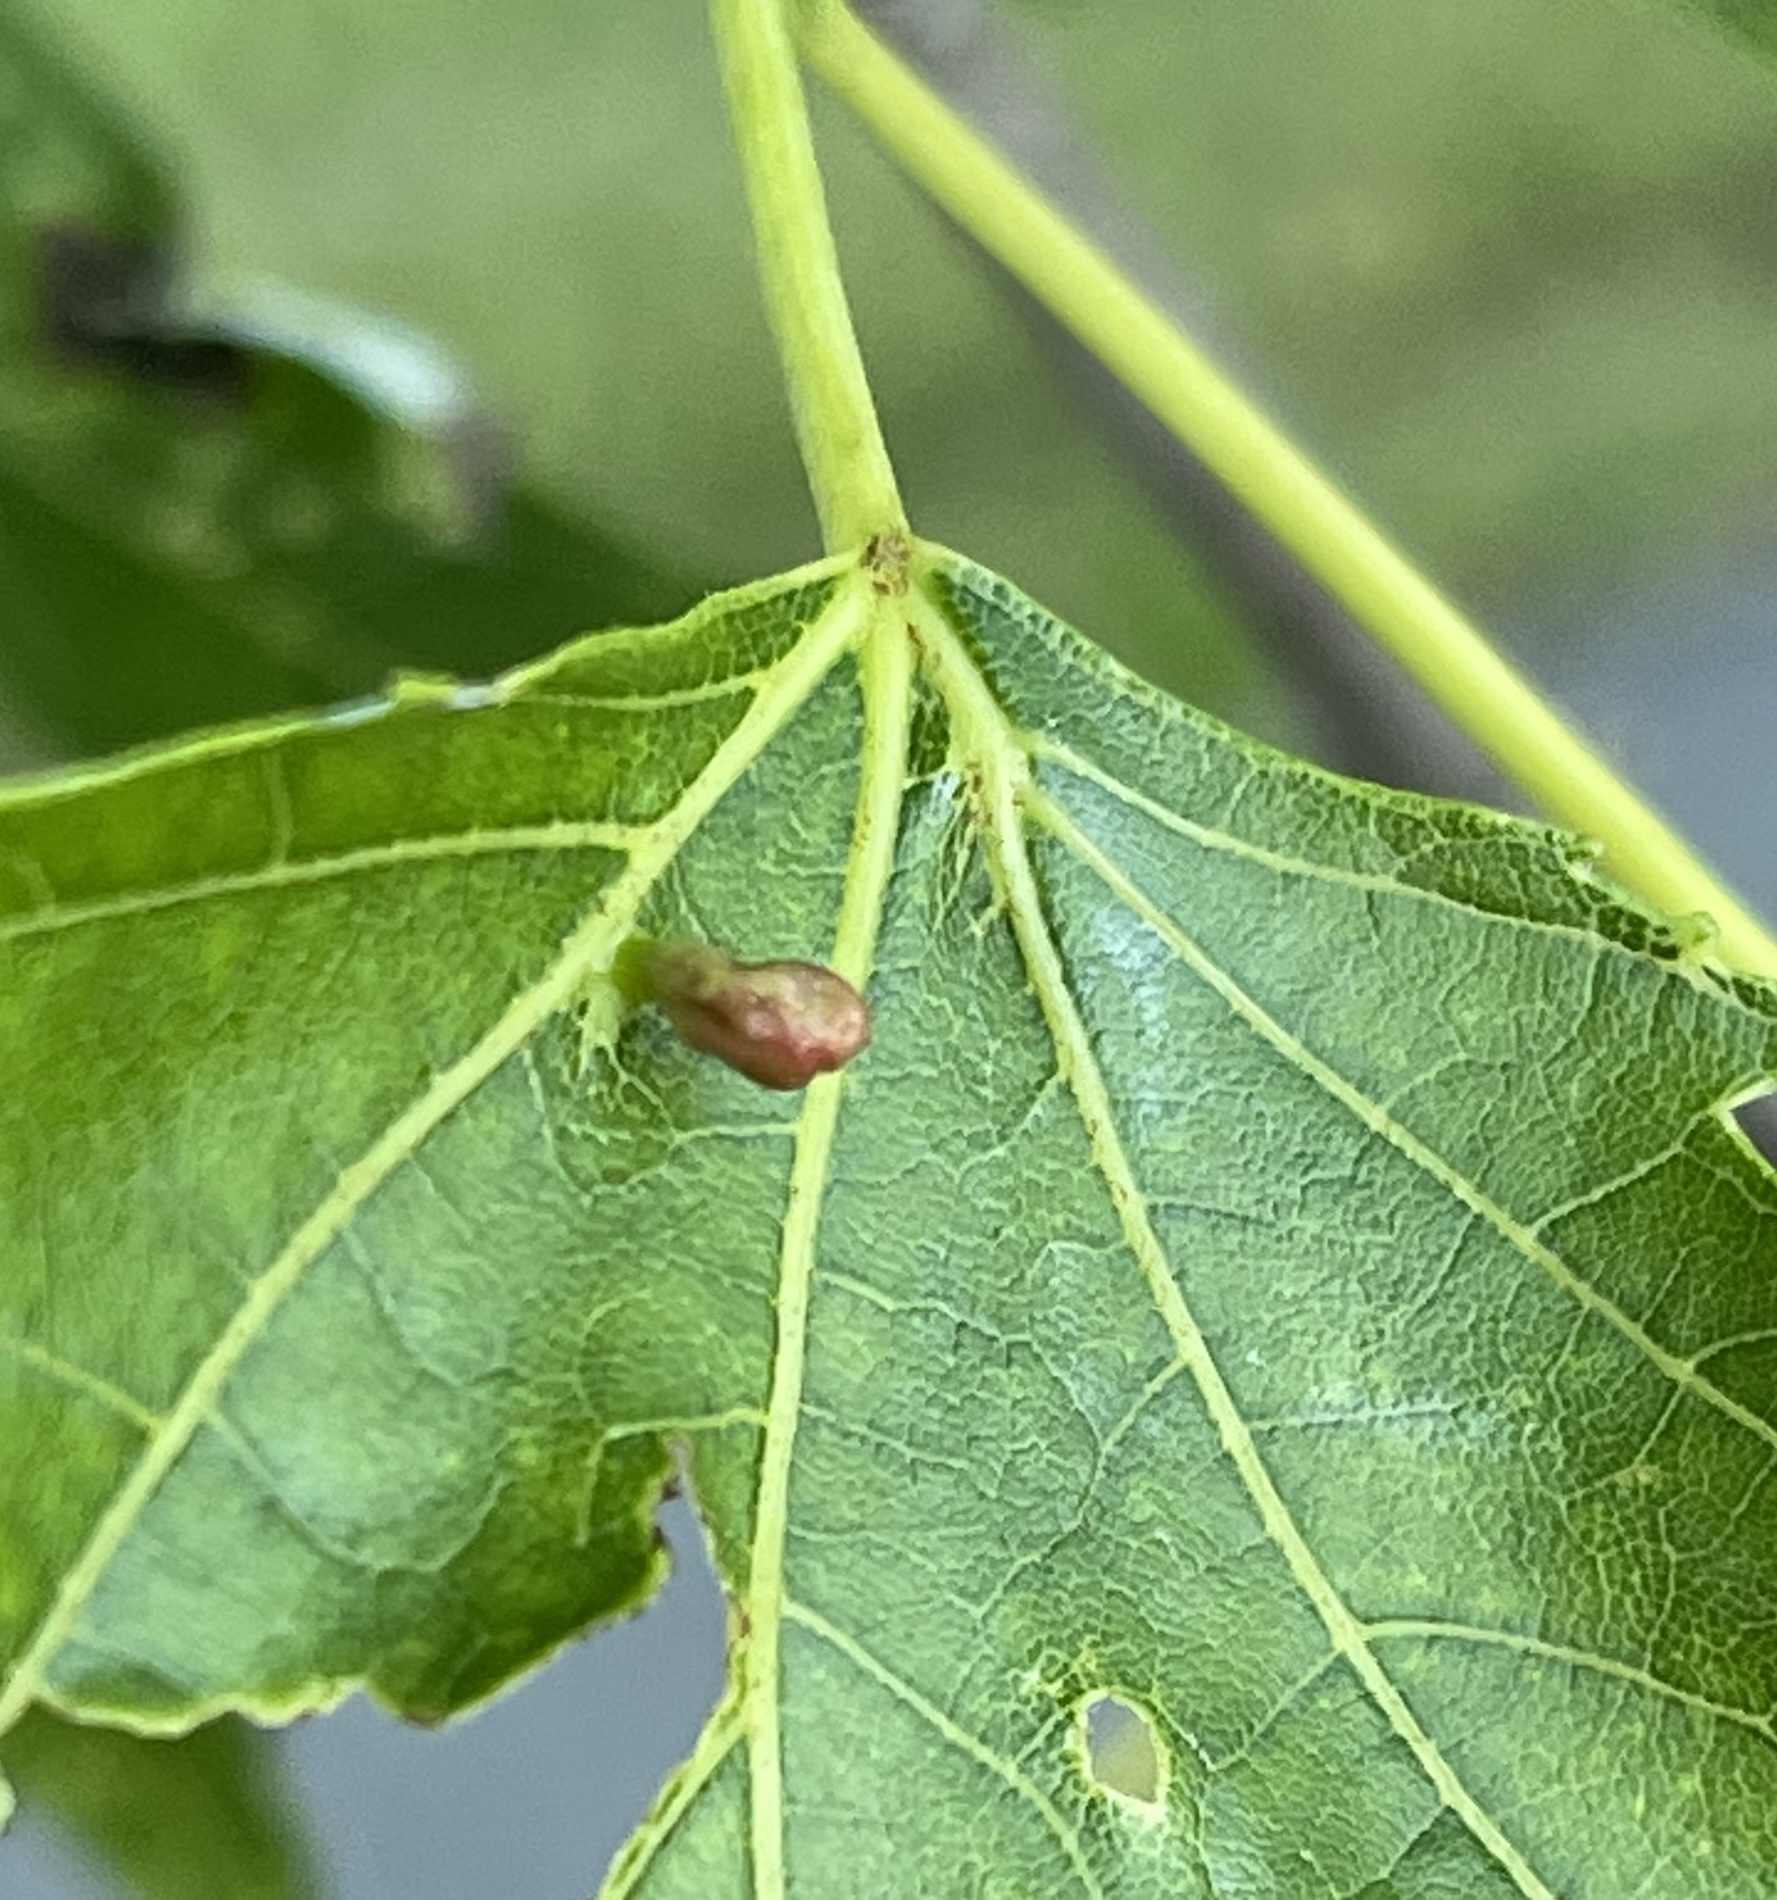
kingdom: Animalia
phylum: Arthropoda
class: Arachnida
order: Trombidiformes
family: Eriophyidae
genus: Vasates
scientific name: Vasates quadripedes
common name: Maple bladder gall mite
